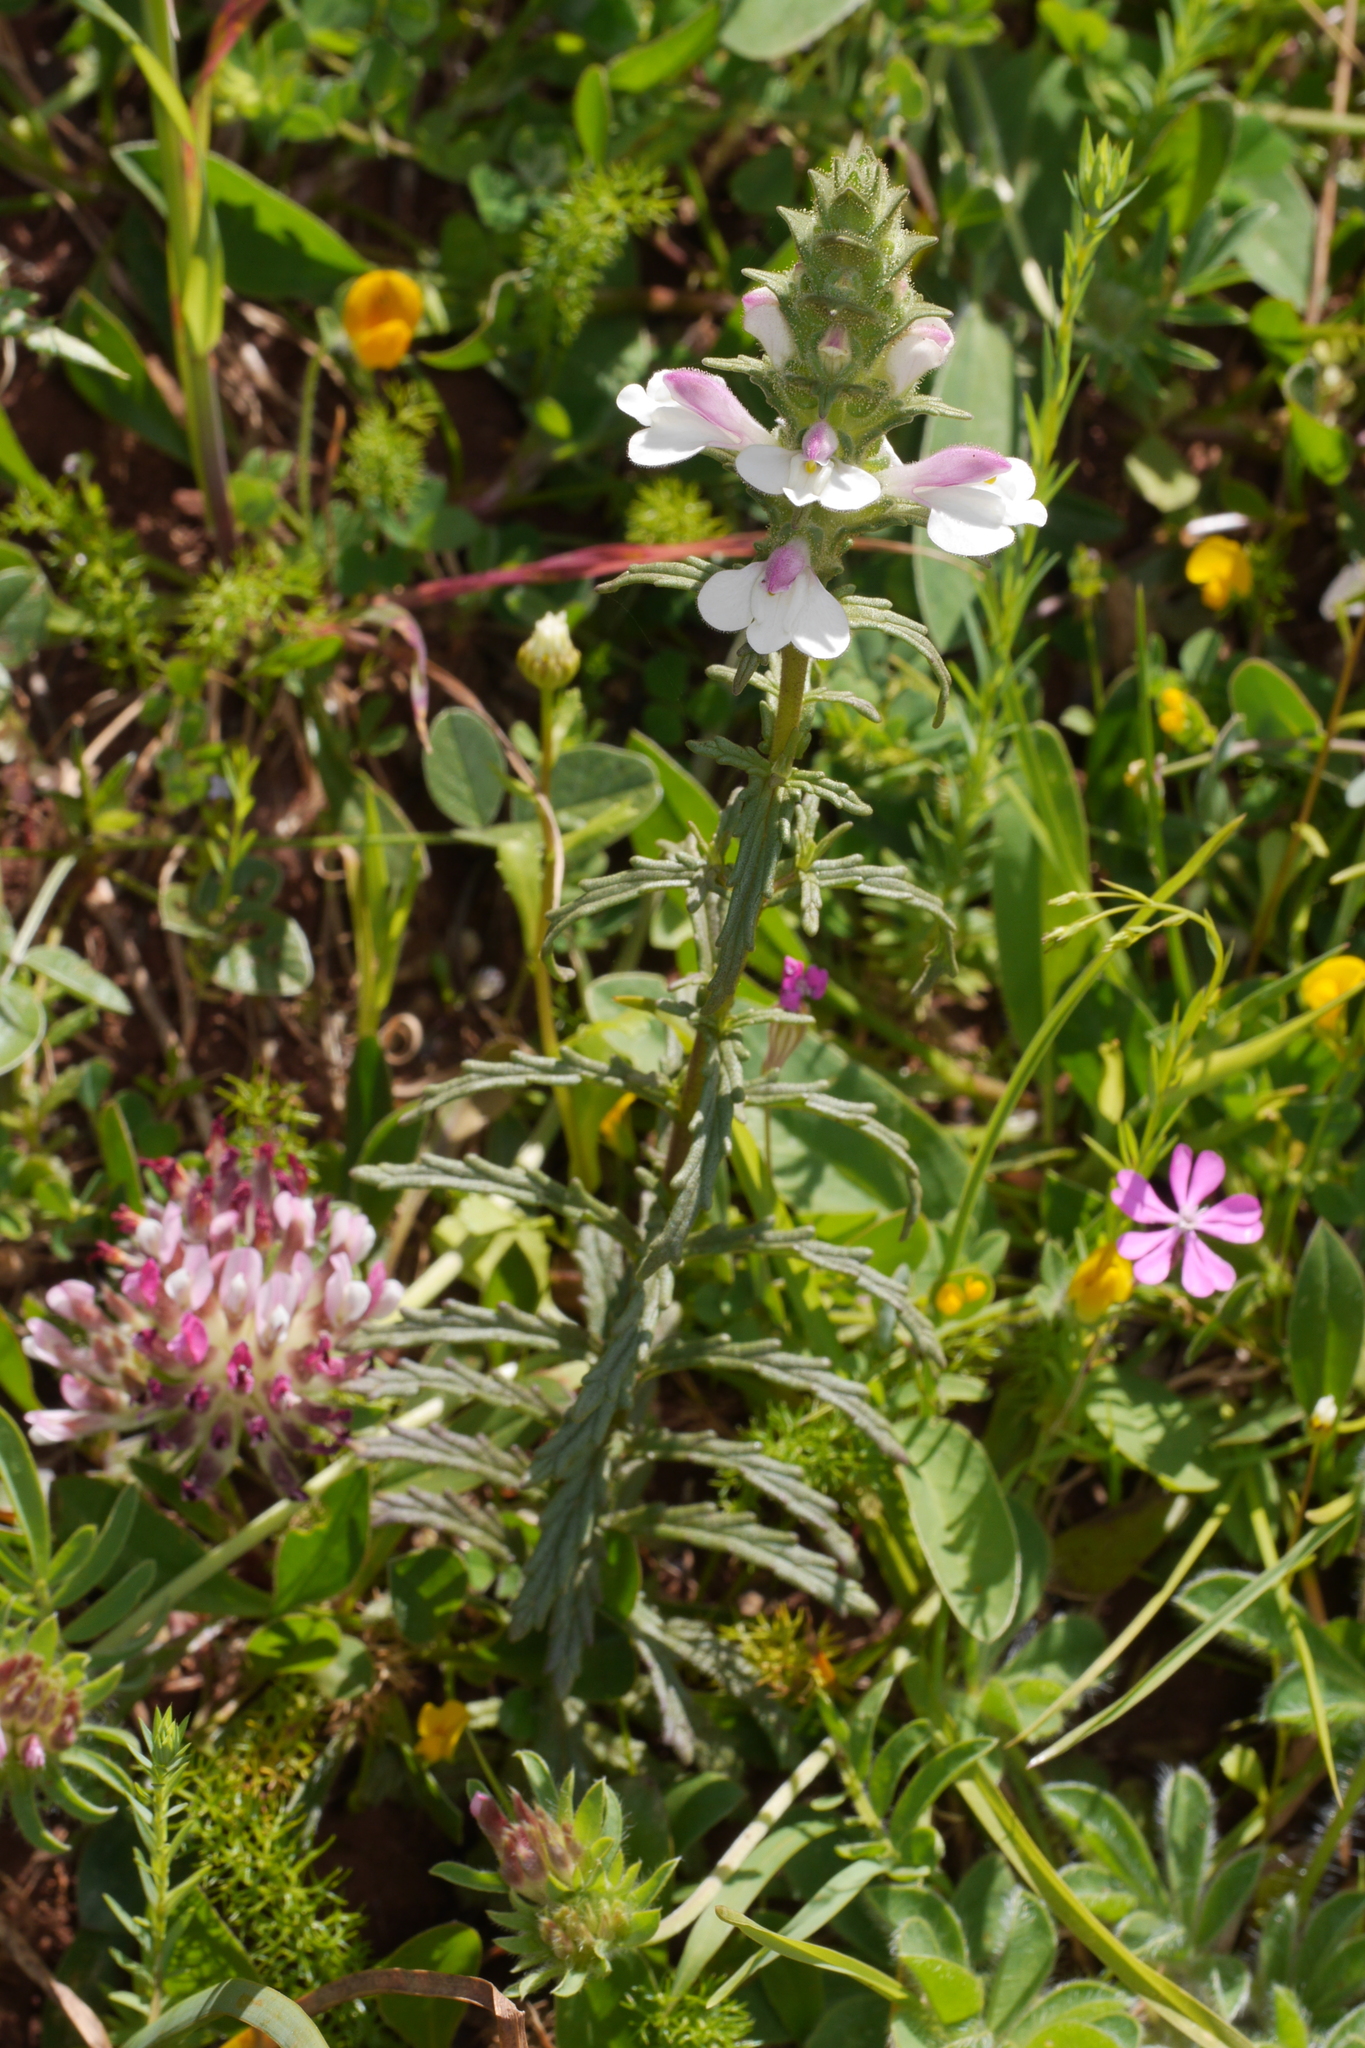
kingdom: Plantae
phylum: Tracheophyta
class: Magnoliopsida
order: Lamiales
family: Orobanchaceae
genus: Bellardia
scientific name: Bellardia trixago
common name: Mediterranean lineseed
